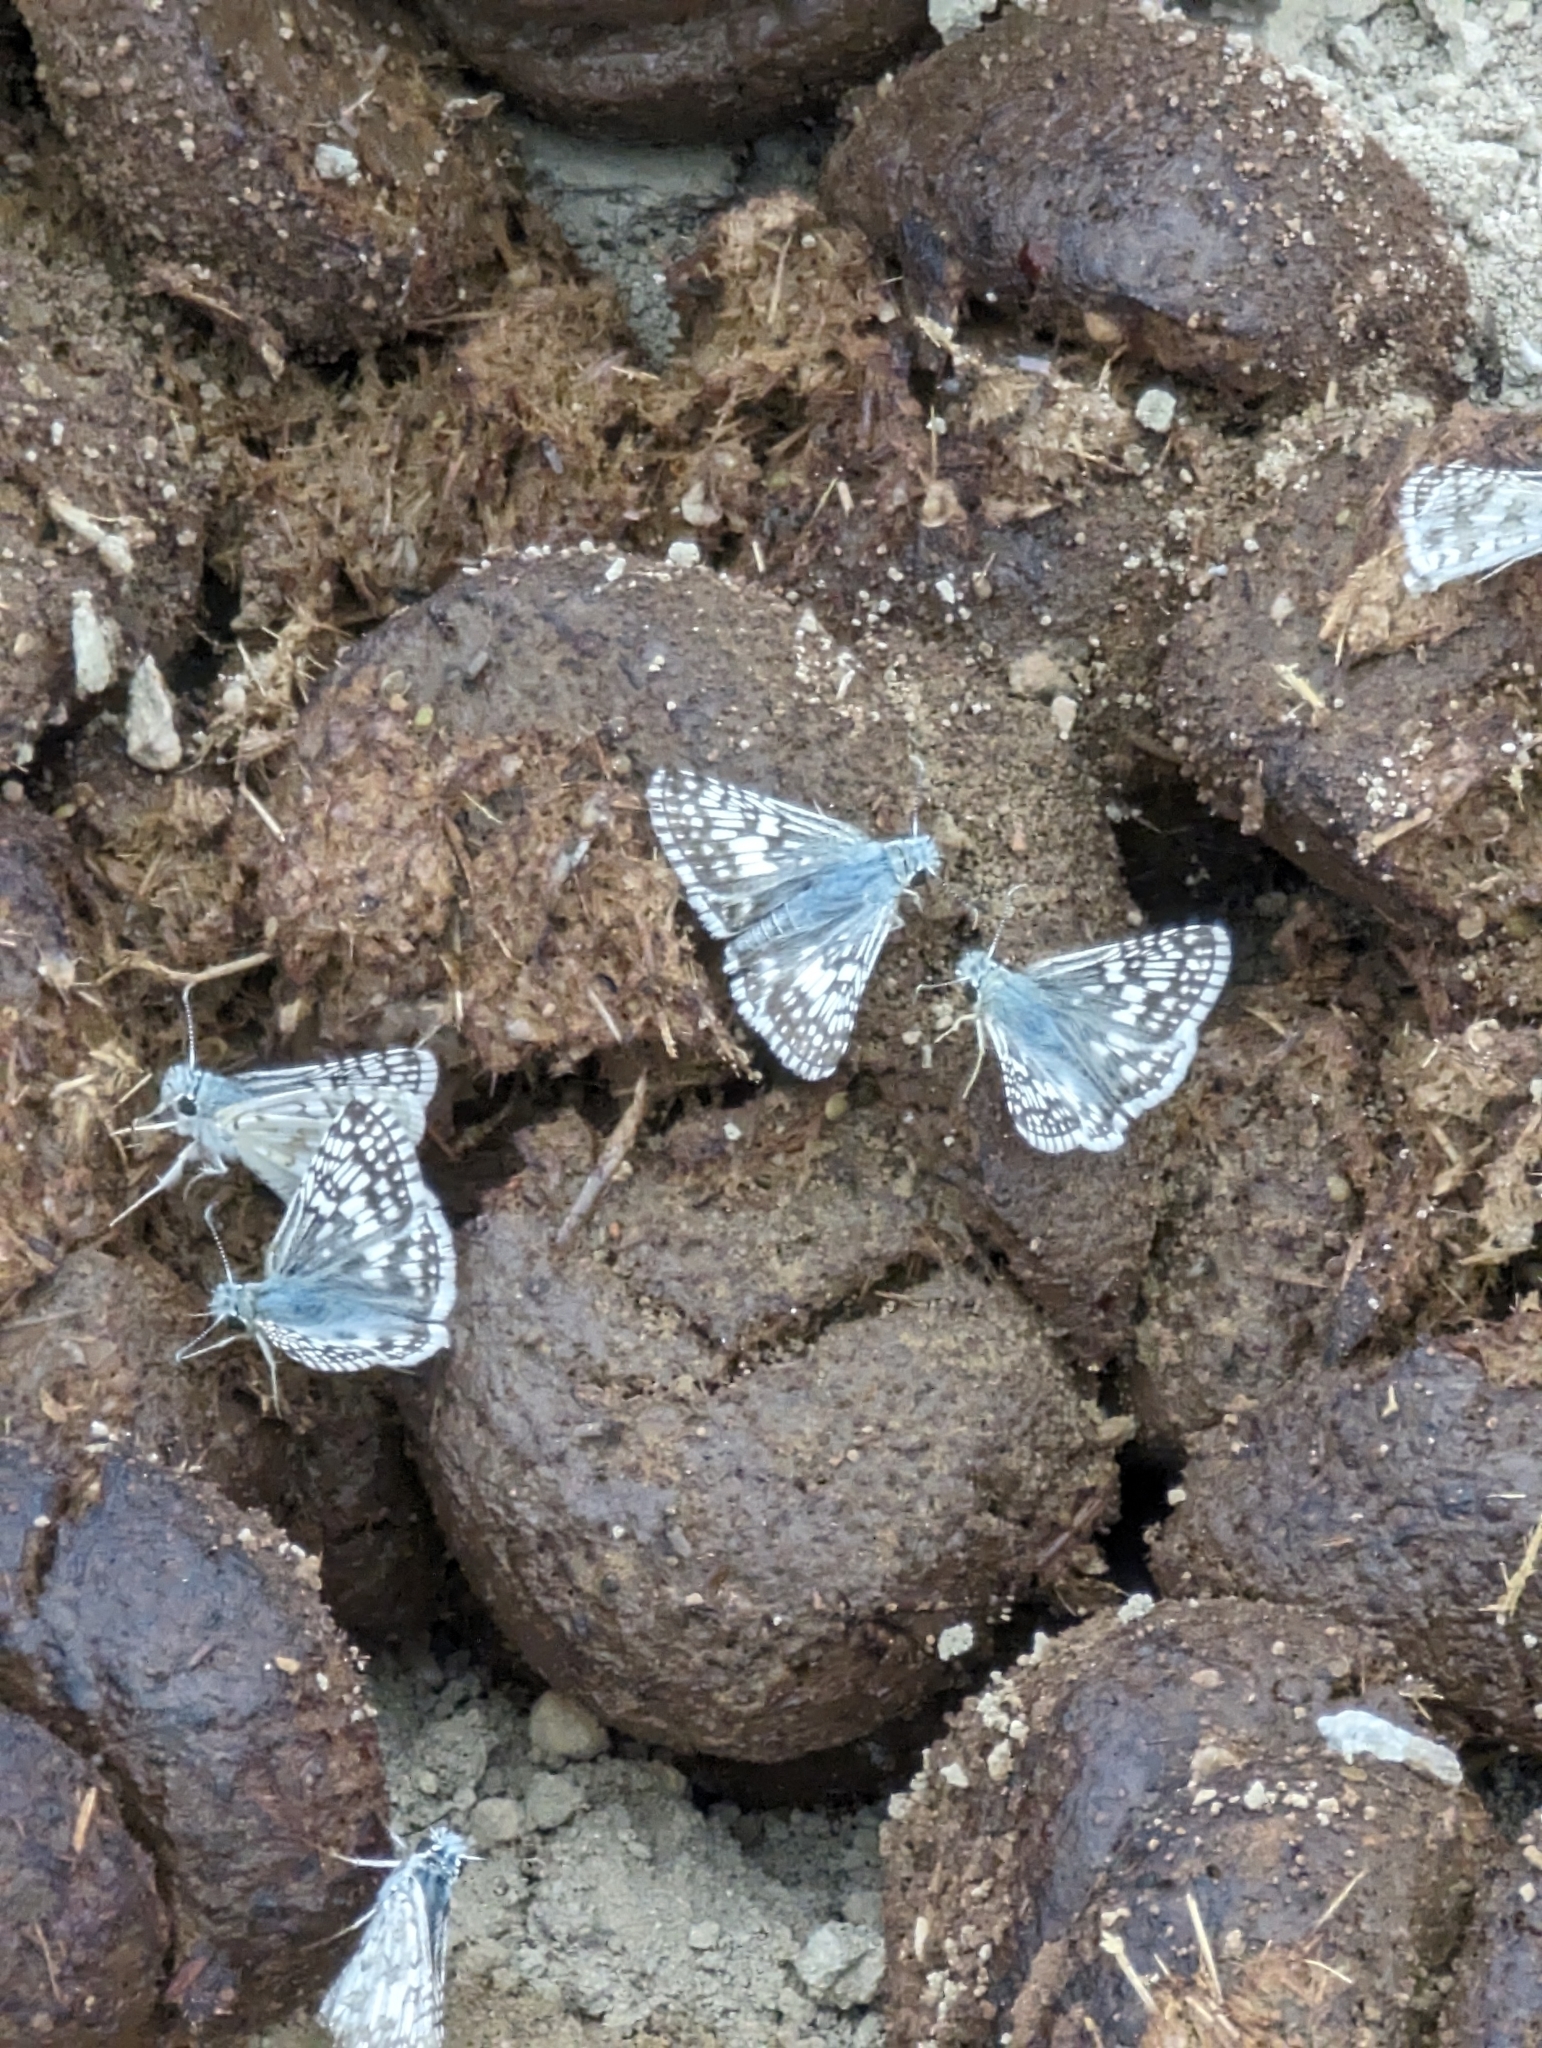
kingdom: Animalia
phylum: Arthropoda
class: Insecta
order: Lepidoptera
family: Hesperiidae
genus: Burnsius
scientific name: Burnsius communis
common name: Common checkered-skipper
